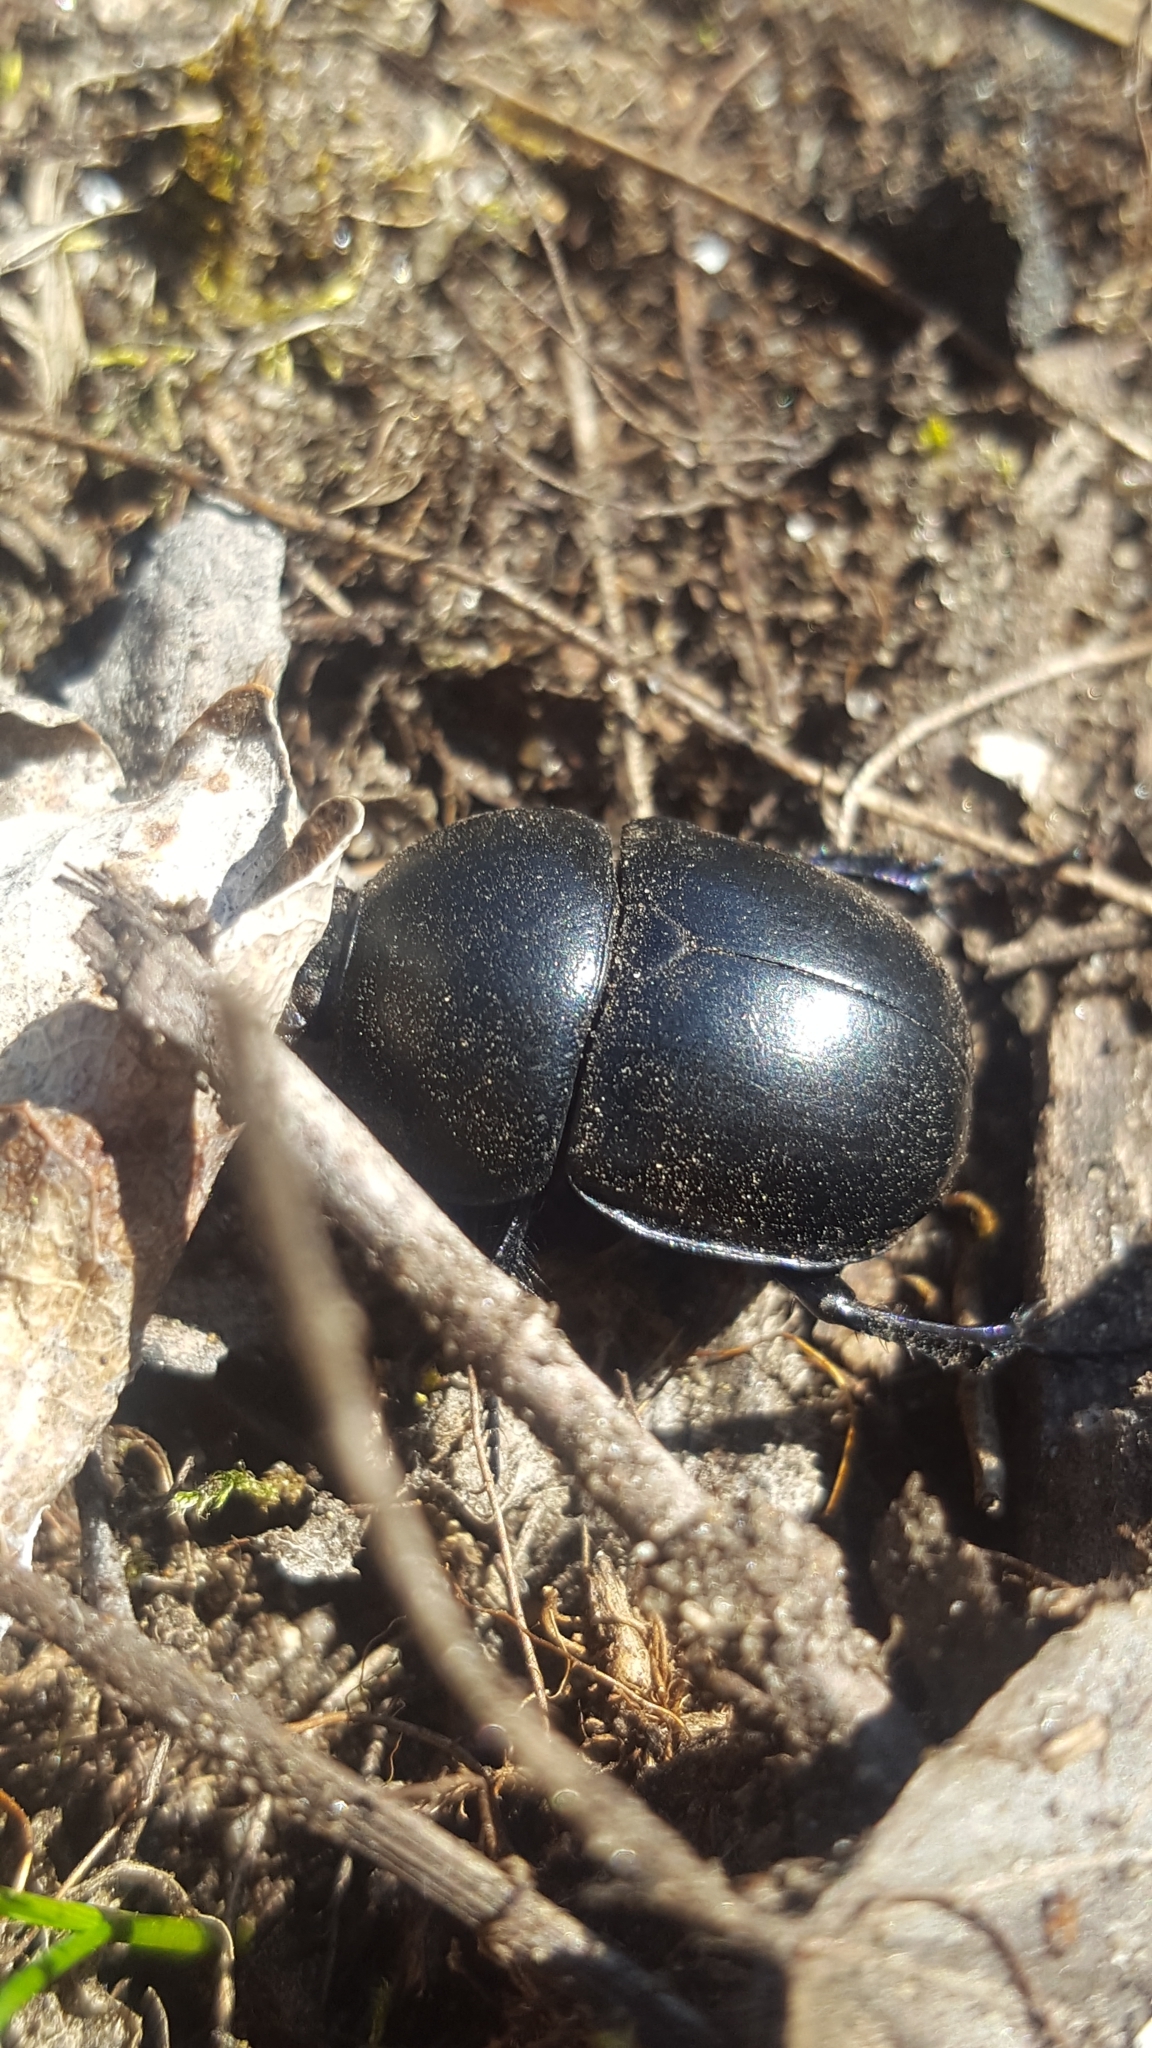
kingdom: Animalia
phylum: Arthropoda
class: Insecta
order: Coleoptera
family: Geotrupidae
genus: Trypocopris
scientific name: Trypocopris vernalis
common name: Spring dumbledor
